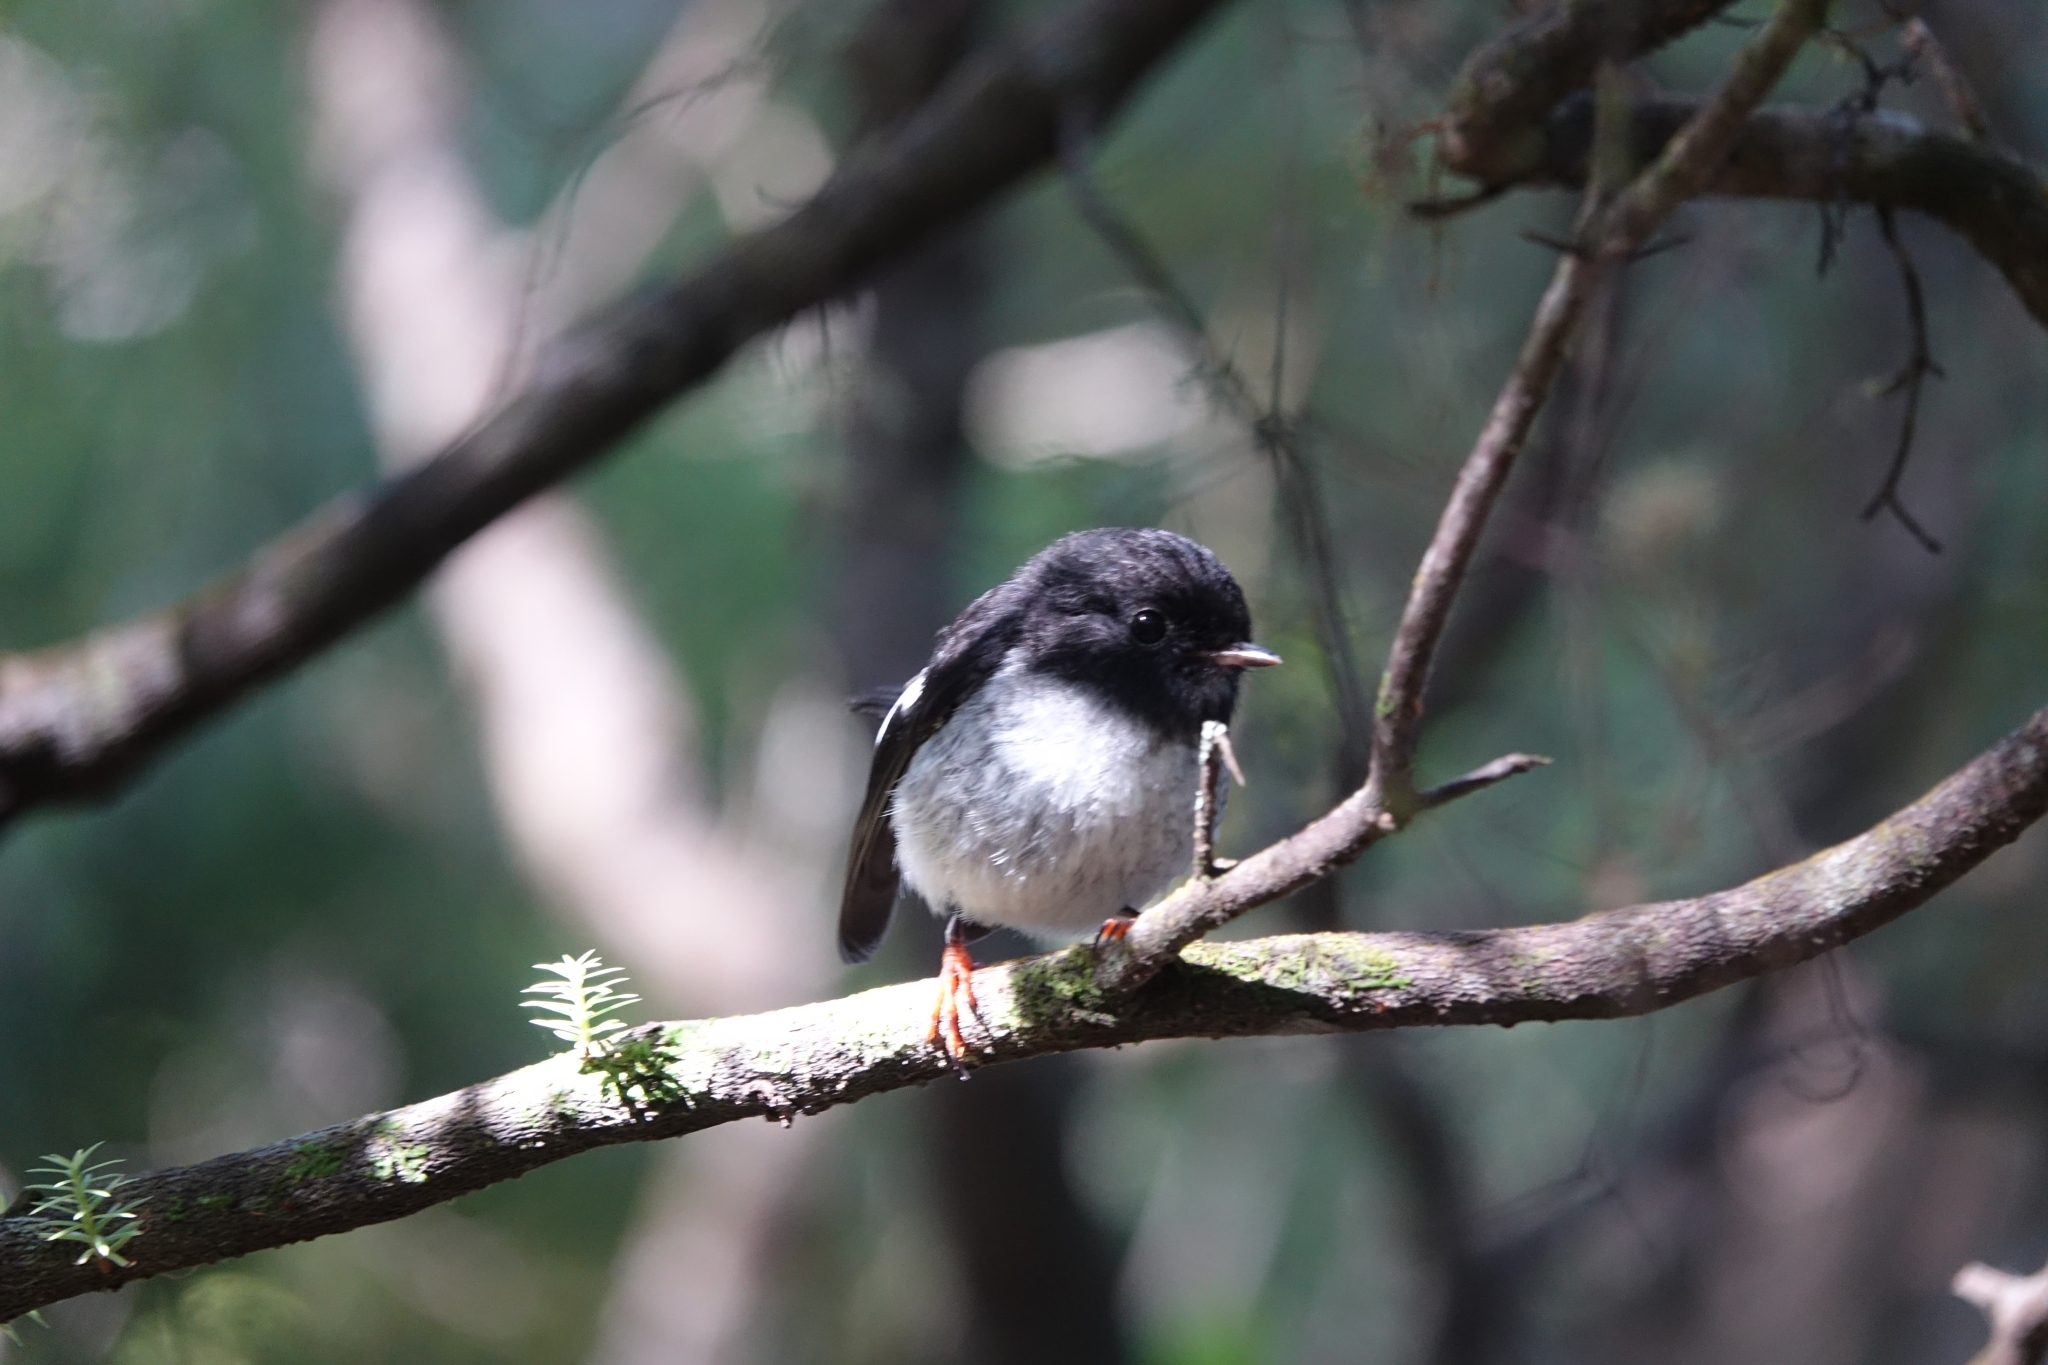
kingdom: Animalia
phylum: Chordata
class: Aves
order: Passeriformes
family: Petroicidae
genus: Petroica
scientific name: Petroica macrocephala
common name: Tomtit
